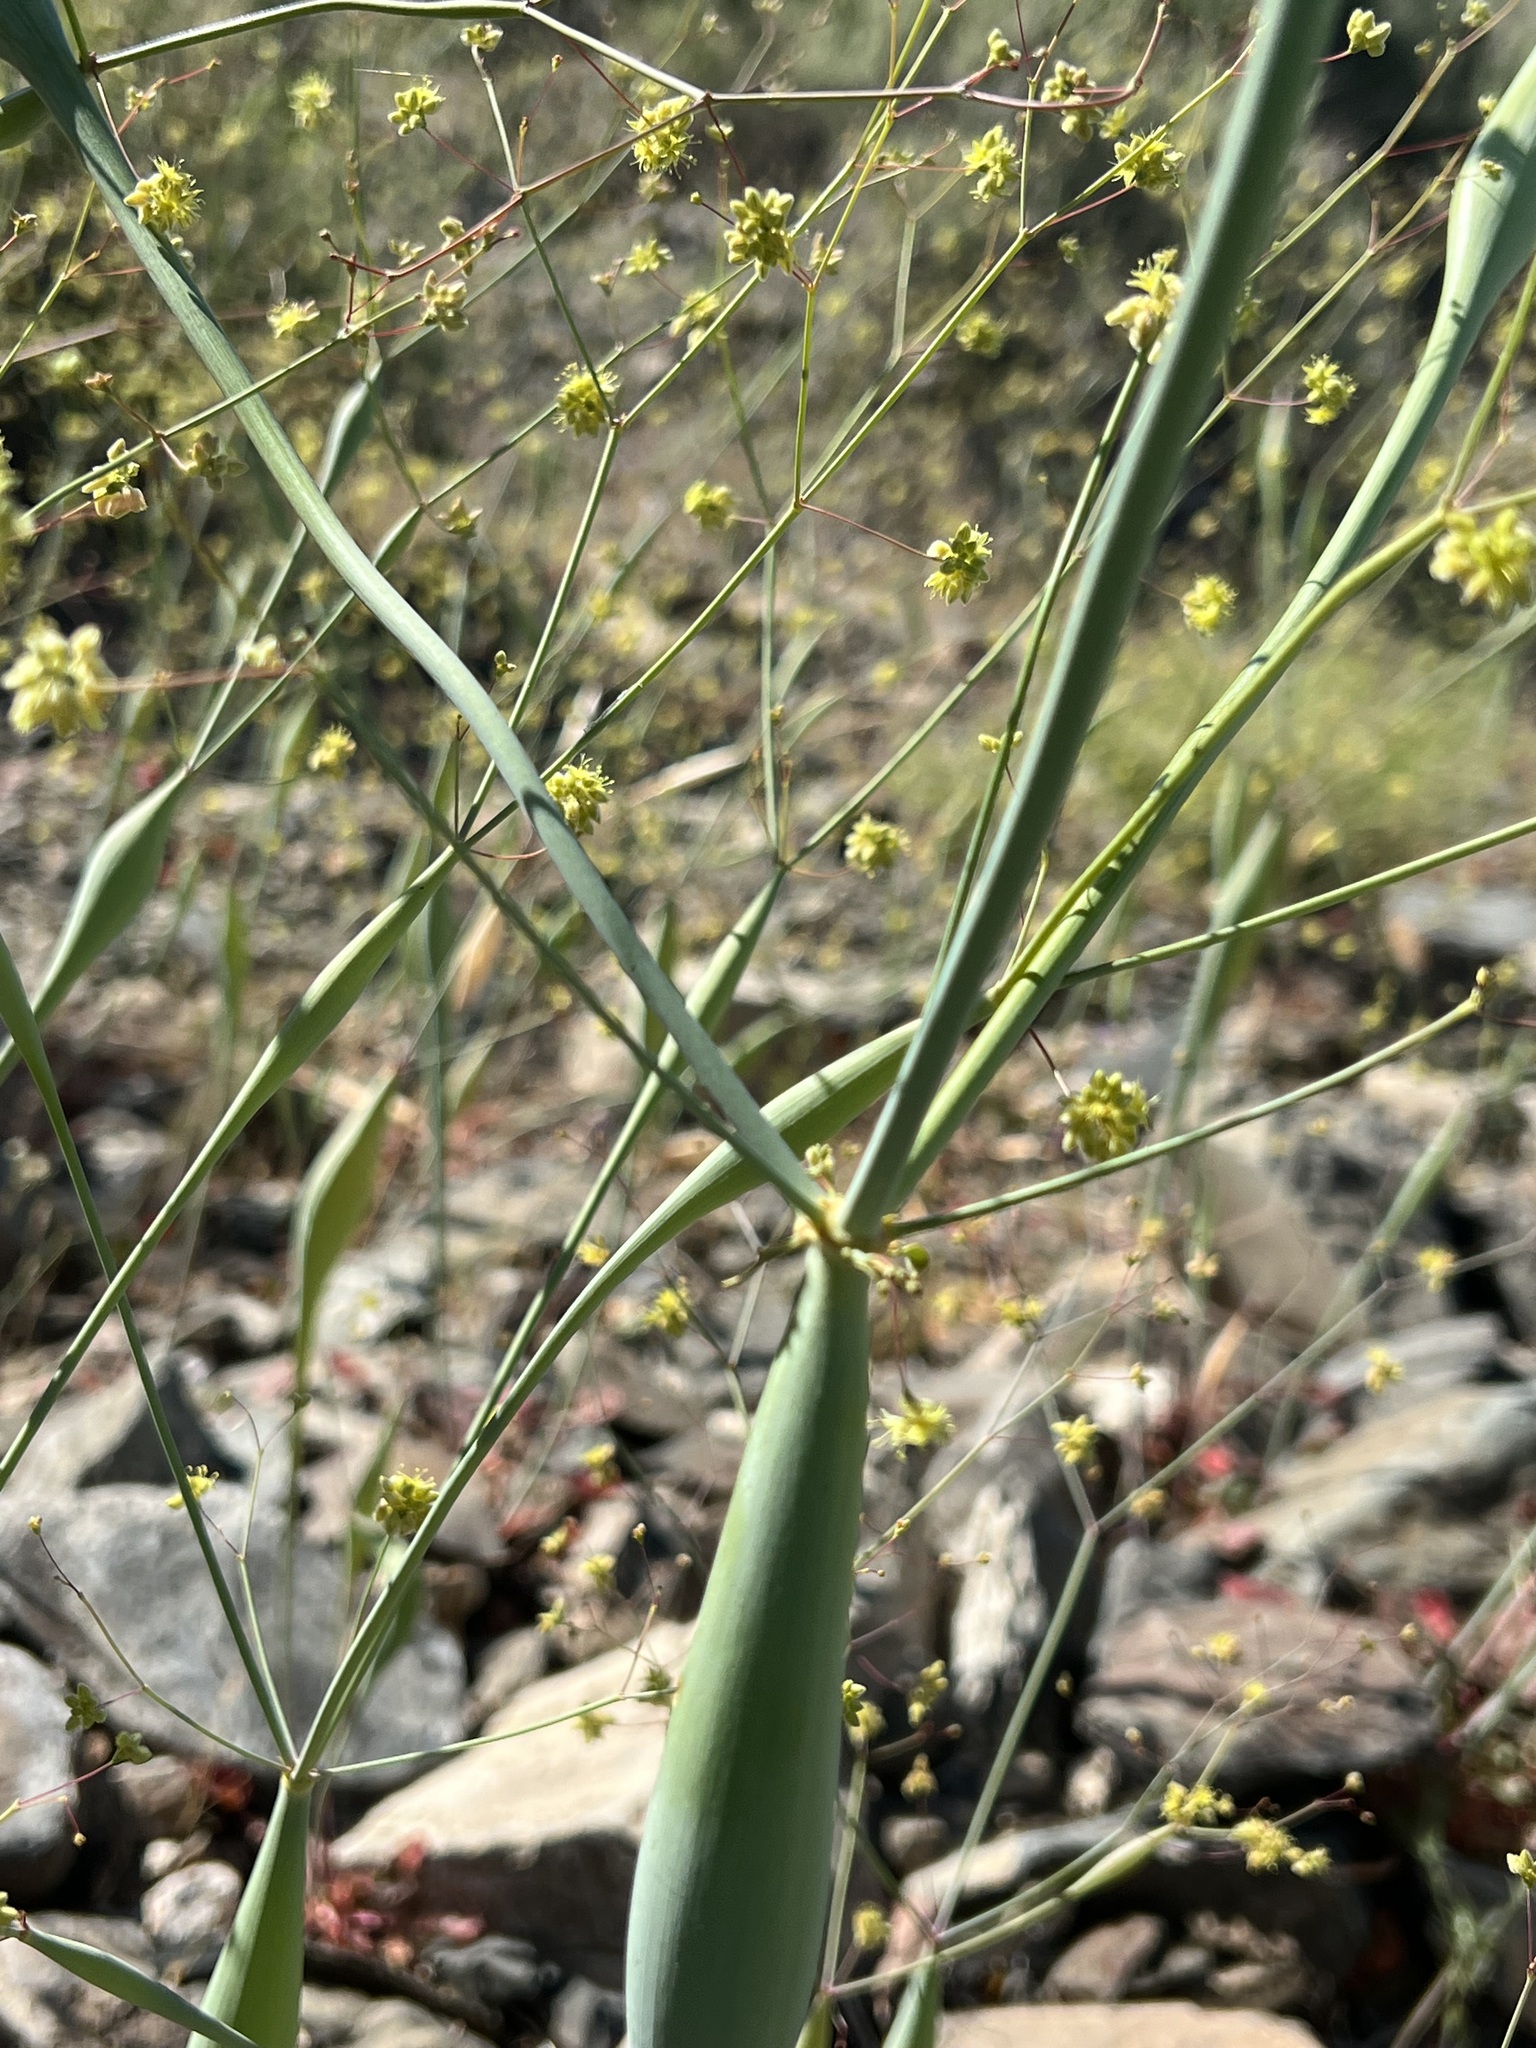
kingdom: Plantae
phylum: Tracheophyta
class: Magnoliopsida
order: Caryophyllales
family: Polygonaceae
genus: Eriogonum
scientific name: Eriogonum inflatum
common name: Desert trumpet
